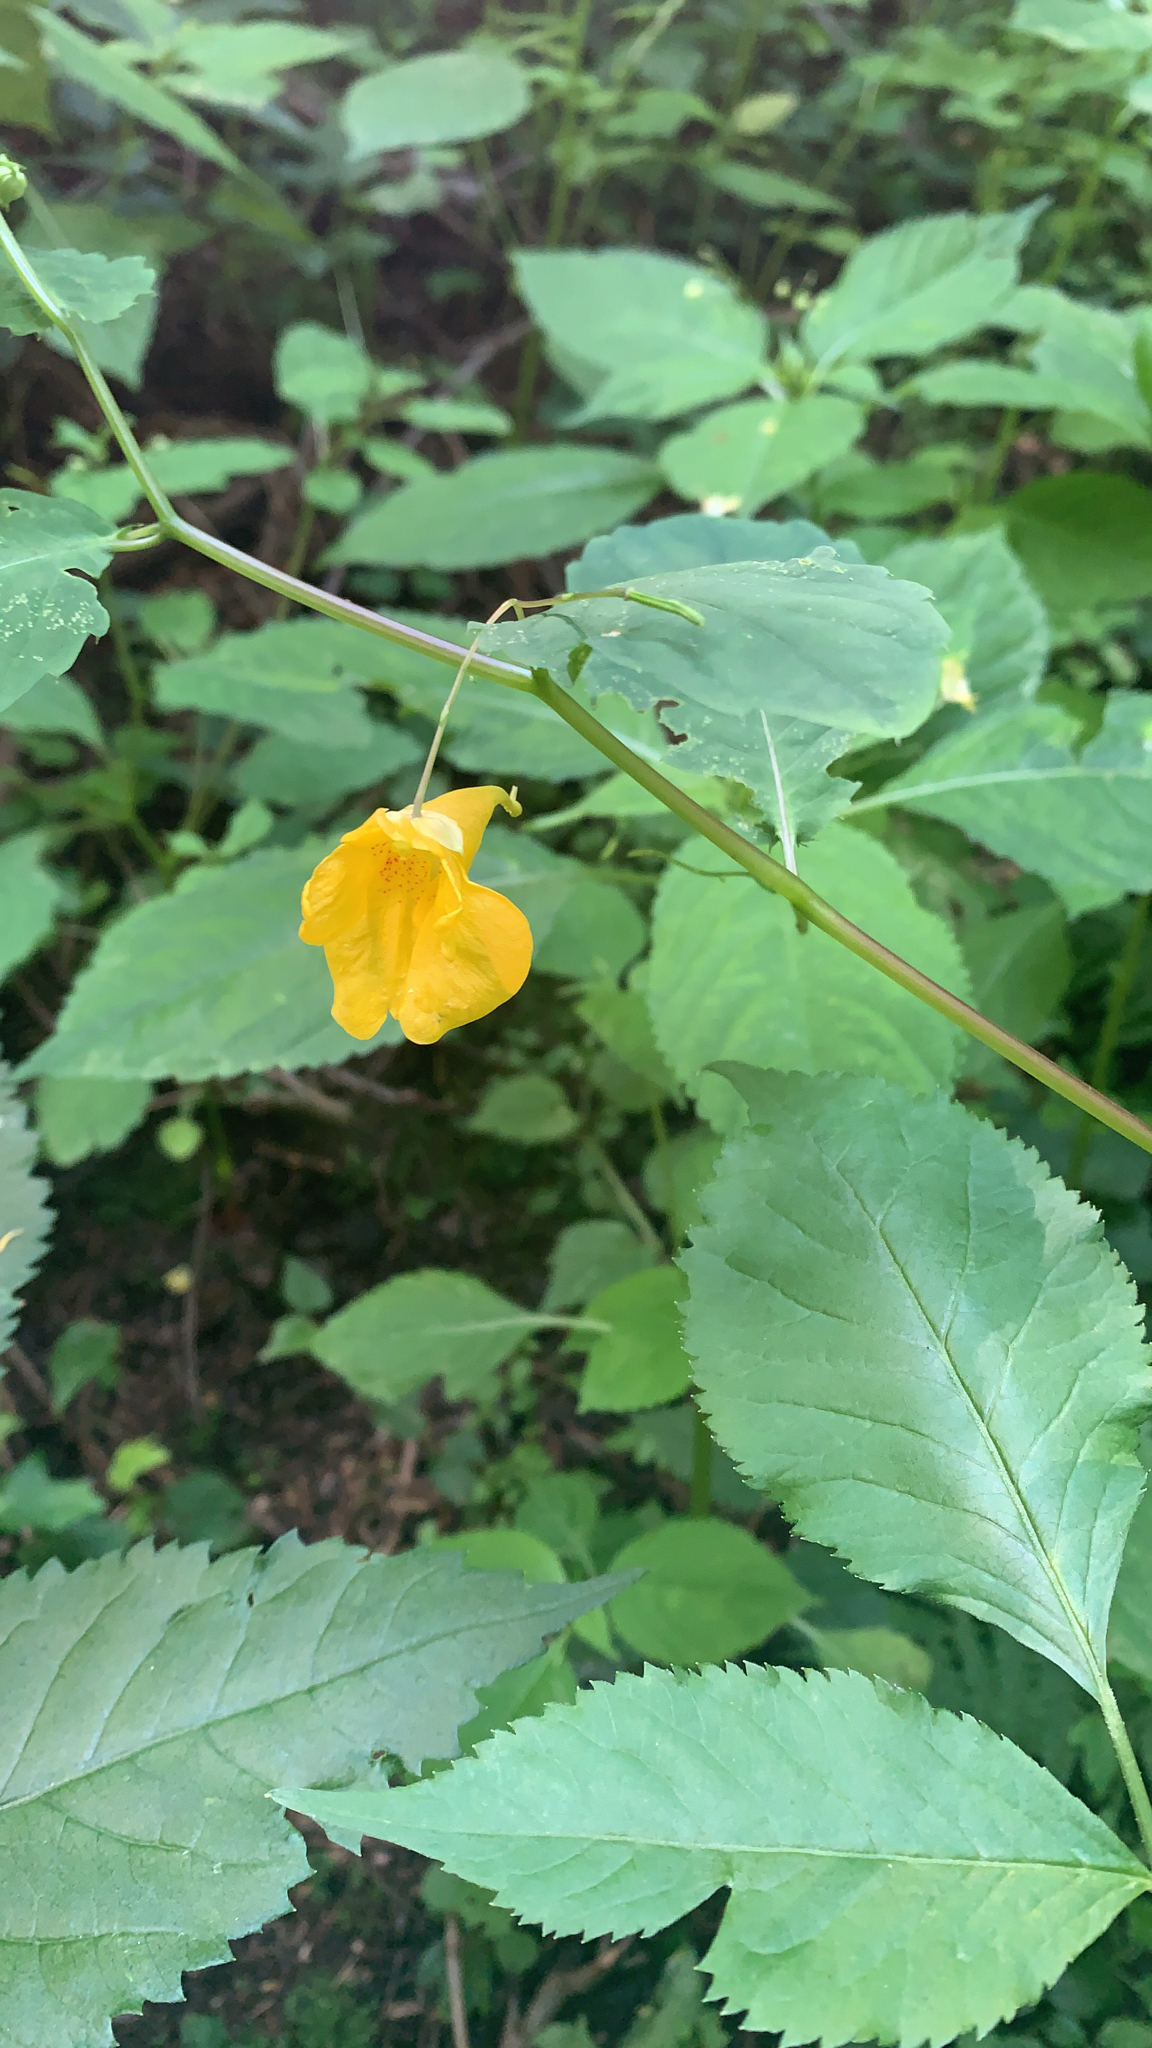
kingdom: Plantae
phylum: Tracheophyta
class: Magnoliopsida
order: Ericales
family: Balsaminaceae
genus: Impatiens
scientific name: Impatiens noli-tangere
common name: Touch-me-not balsam
